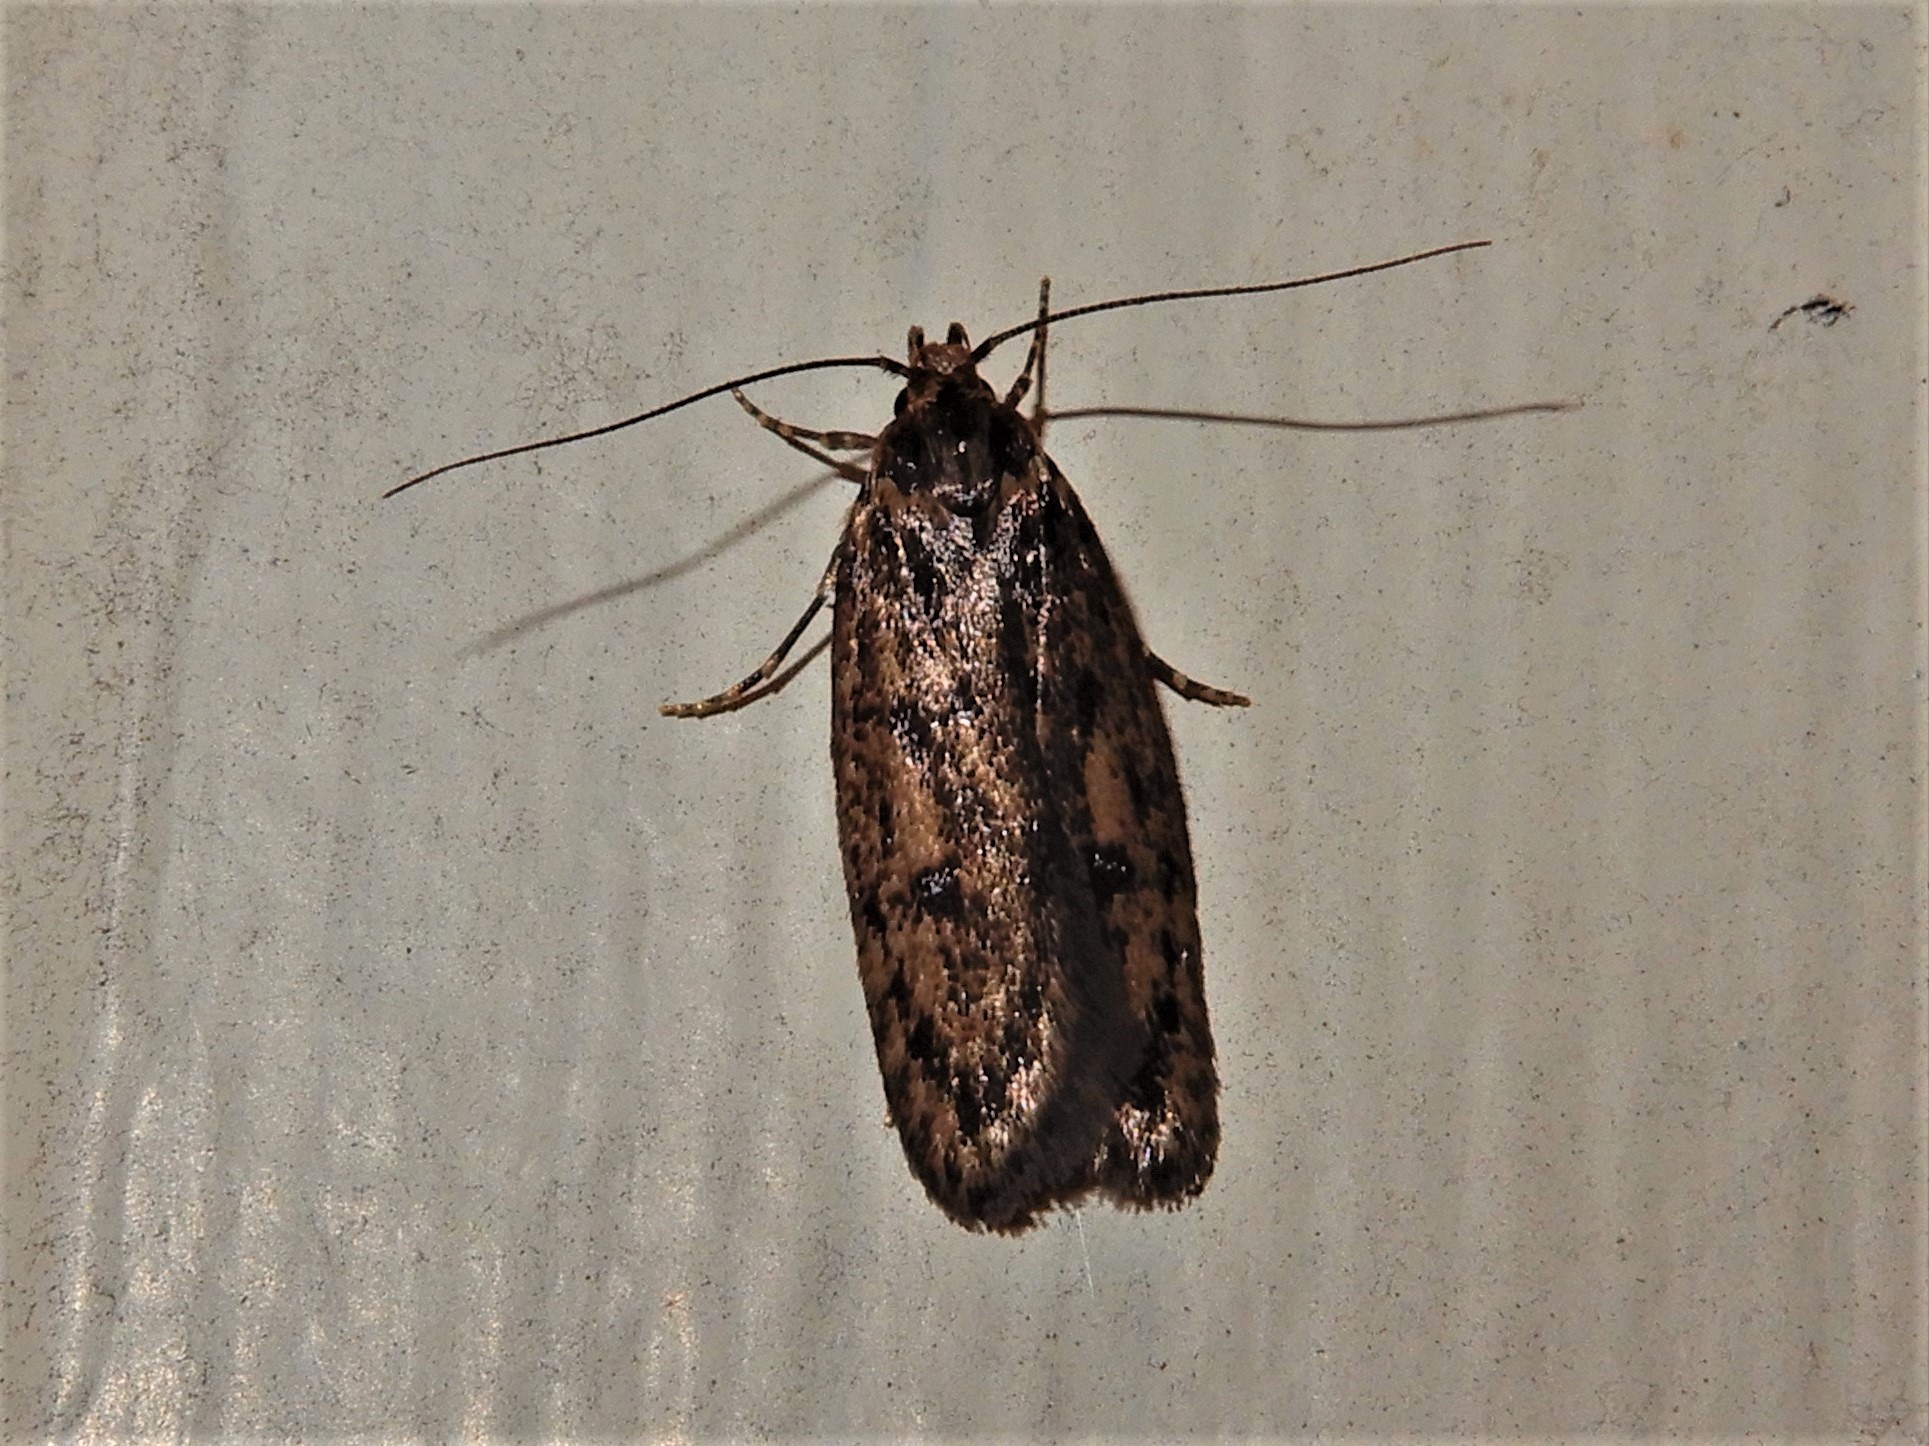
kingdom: Animalia
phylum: Arthropoda
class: Insecta
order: Lepidoptera
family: Oecophoridae
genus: Hofmannophila
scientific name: Hofmannophila pseudospretella
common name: Brown house moth
